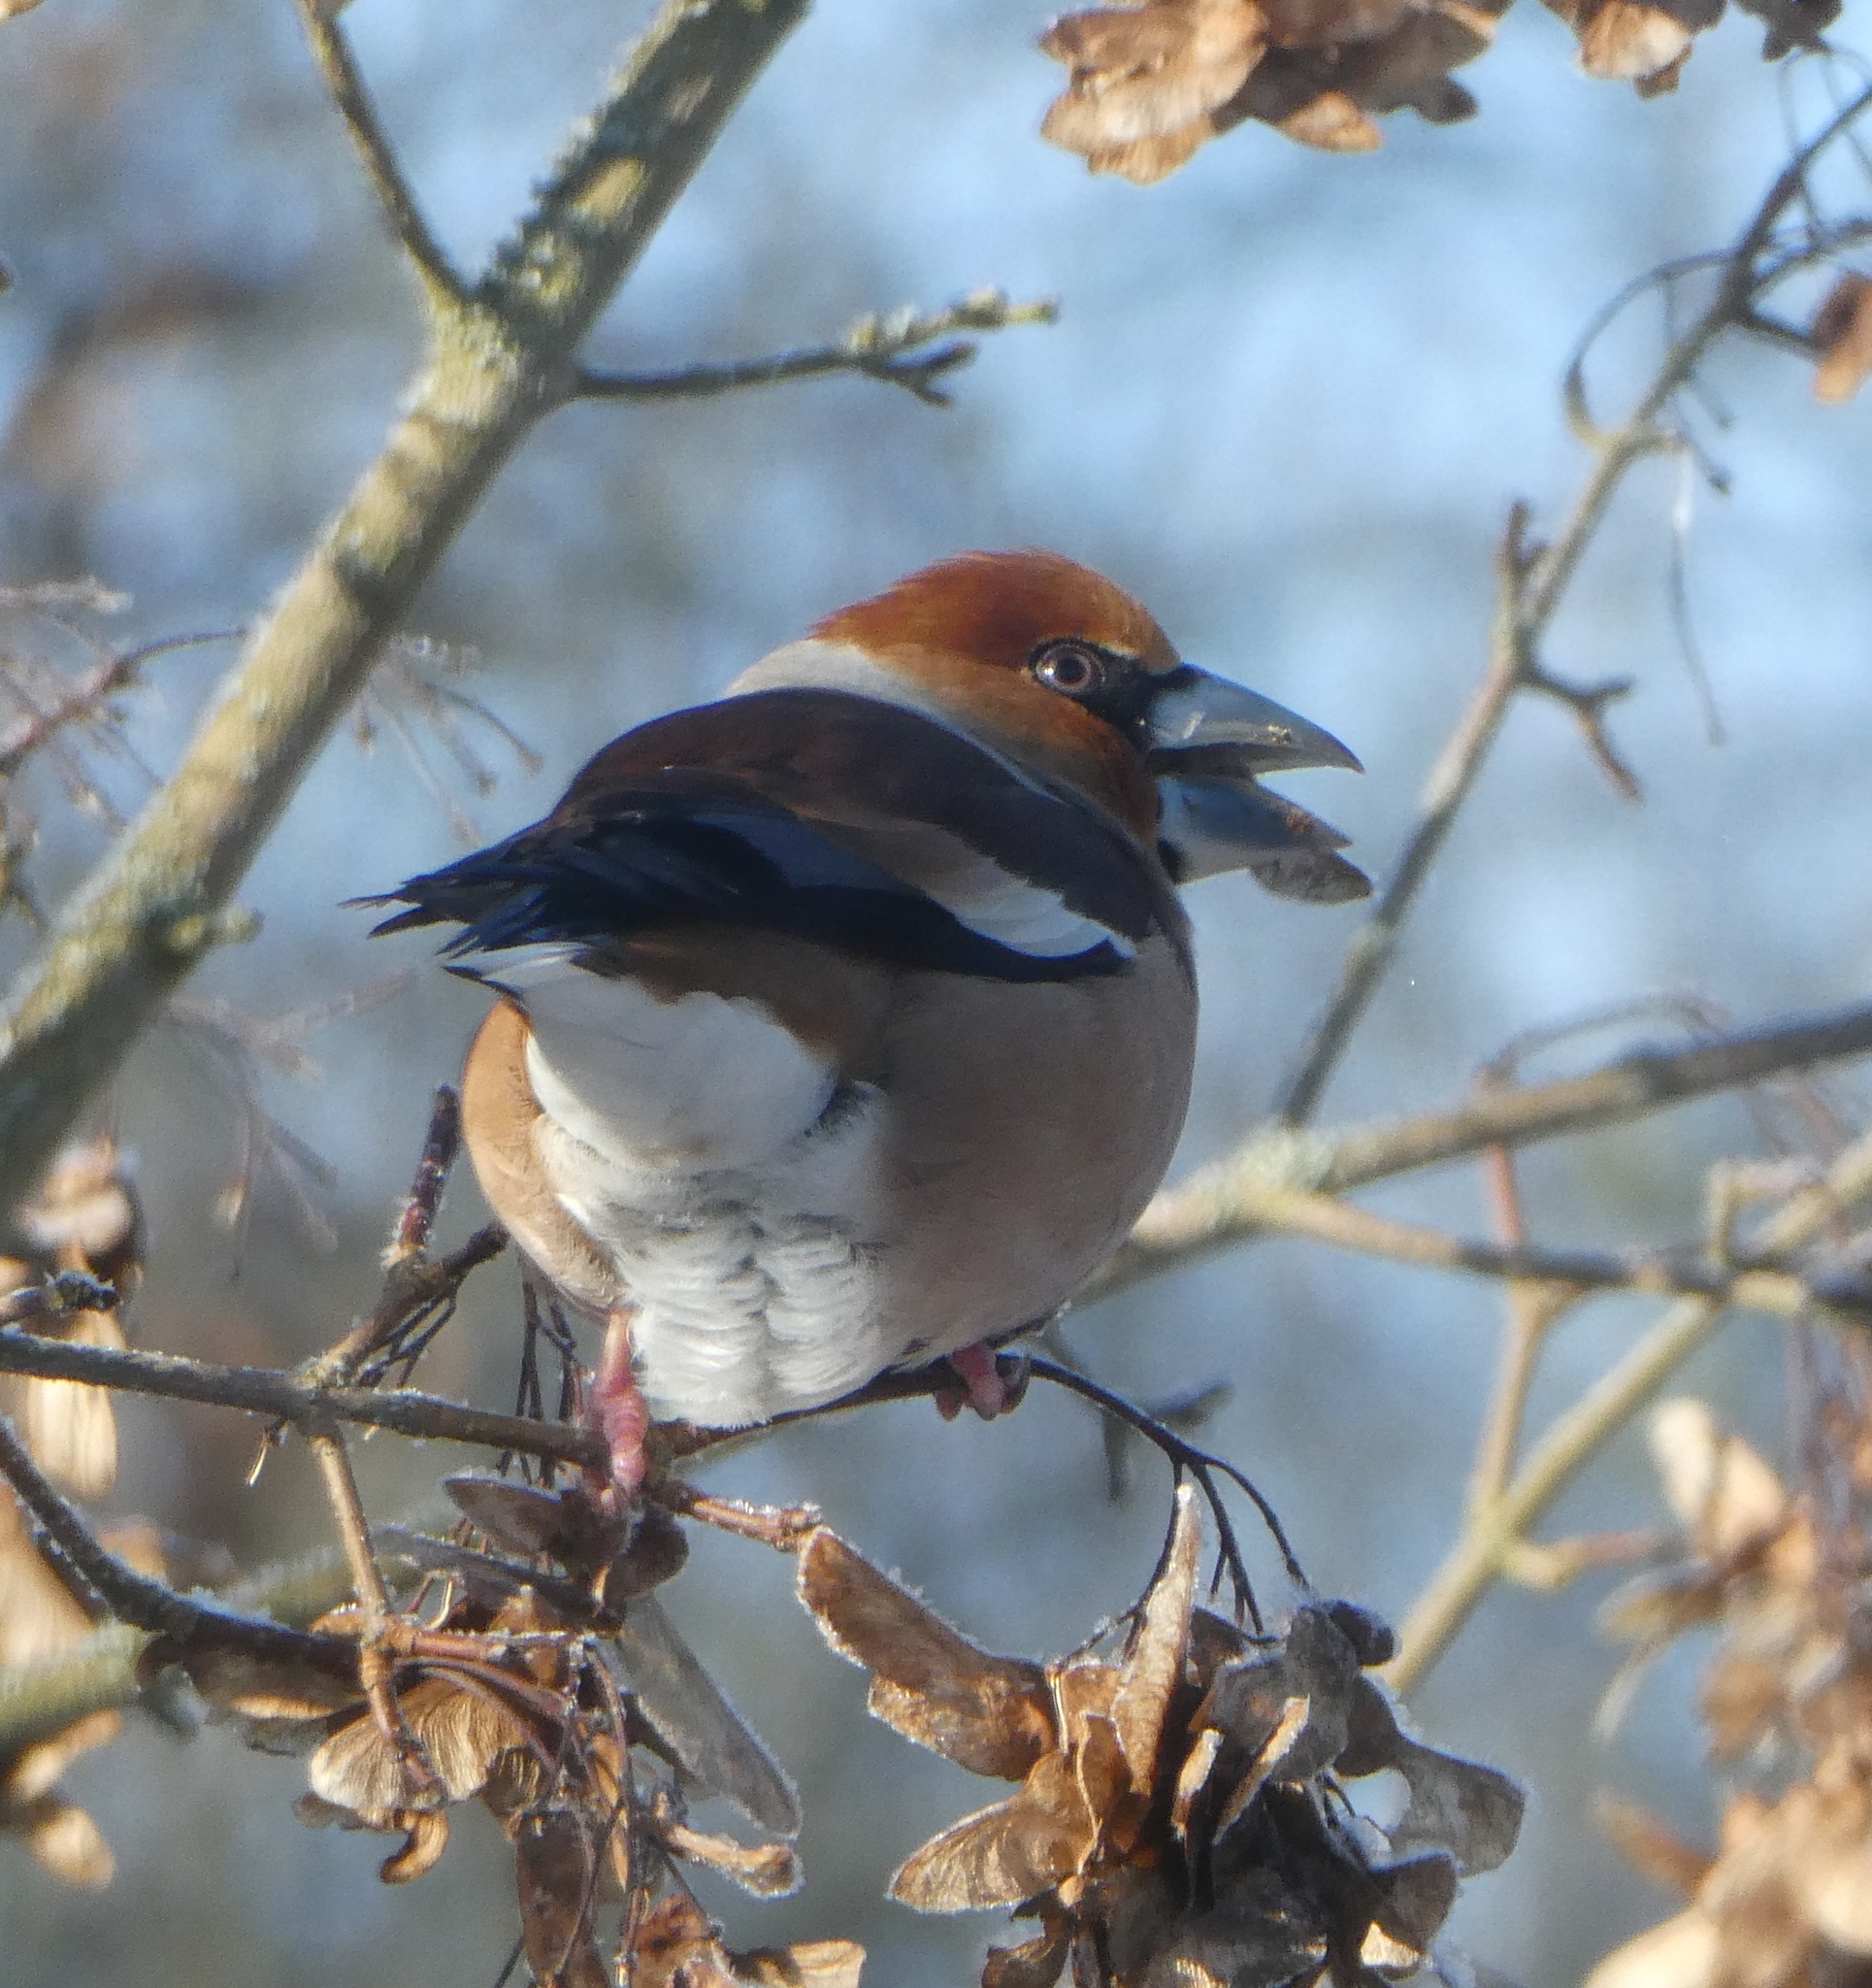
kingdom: Animalia
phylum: Chordata
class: Aves
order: Passeriformes
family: Fringillidae
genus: Coccothraustes
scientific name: Coccothraustes coccothraustes
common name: Hawfinch
